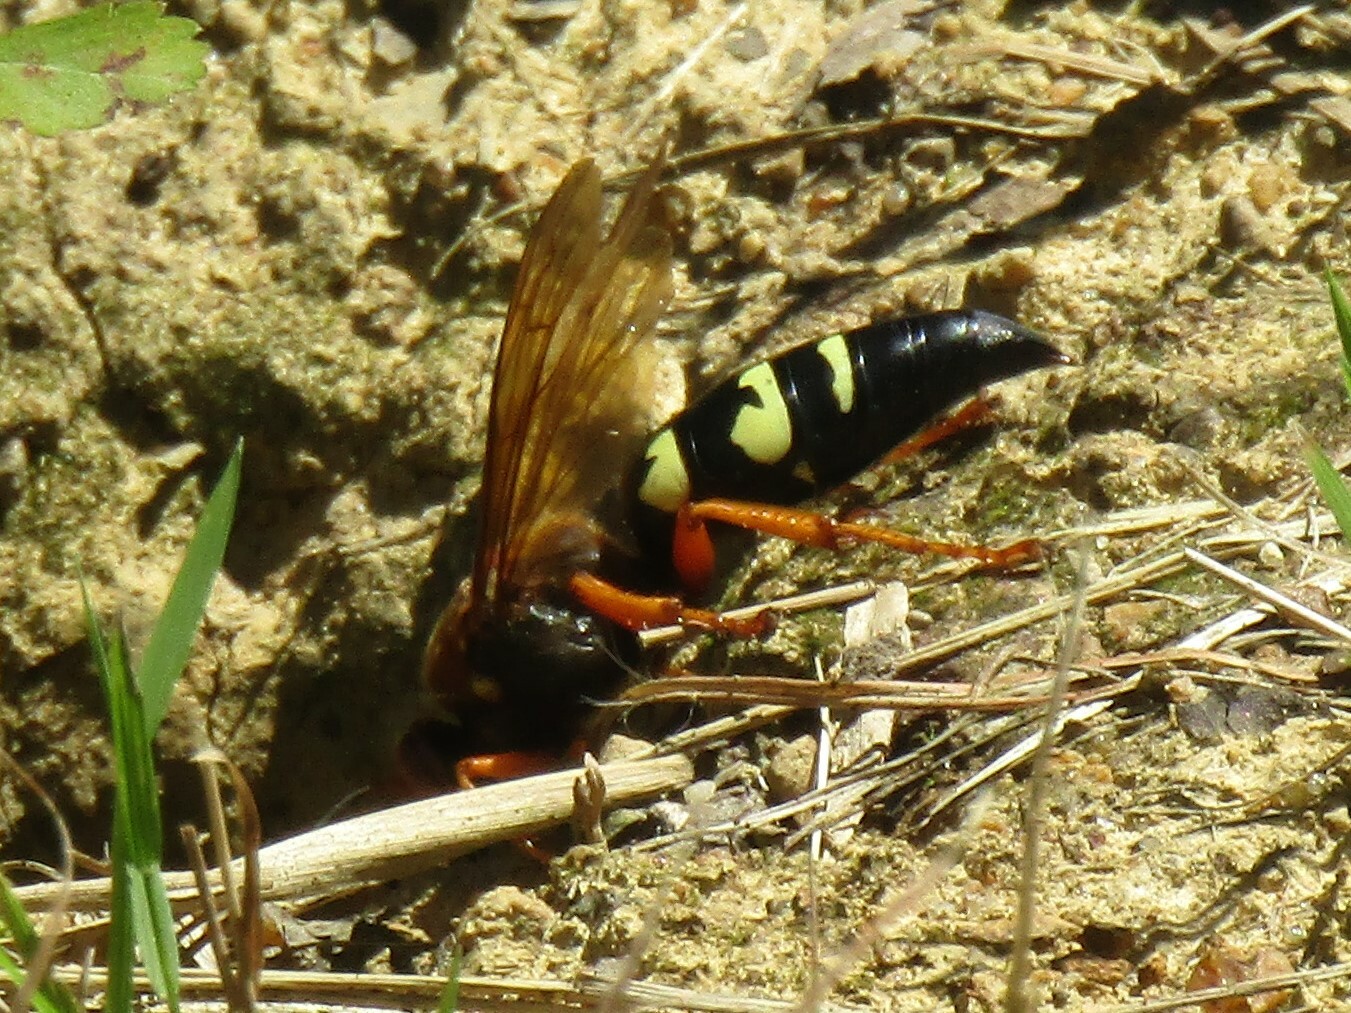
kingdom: Animalia
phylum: Arthropoda
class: Insecta
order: Hymenoptera
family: Crabronidae
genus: Sphecius
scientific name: Sphecius speciosus
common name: Cicada killer
